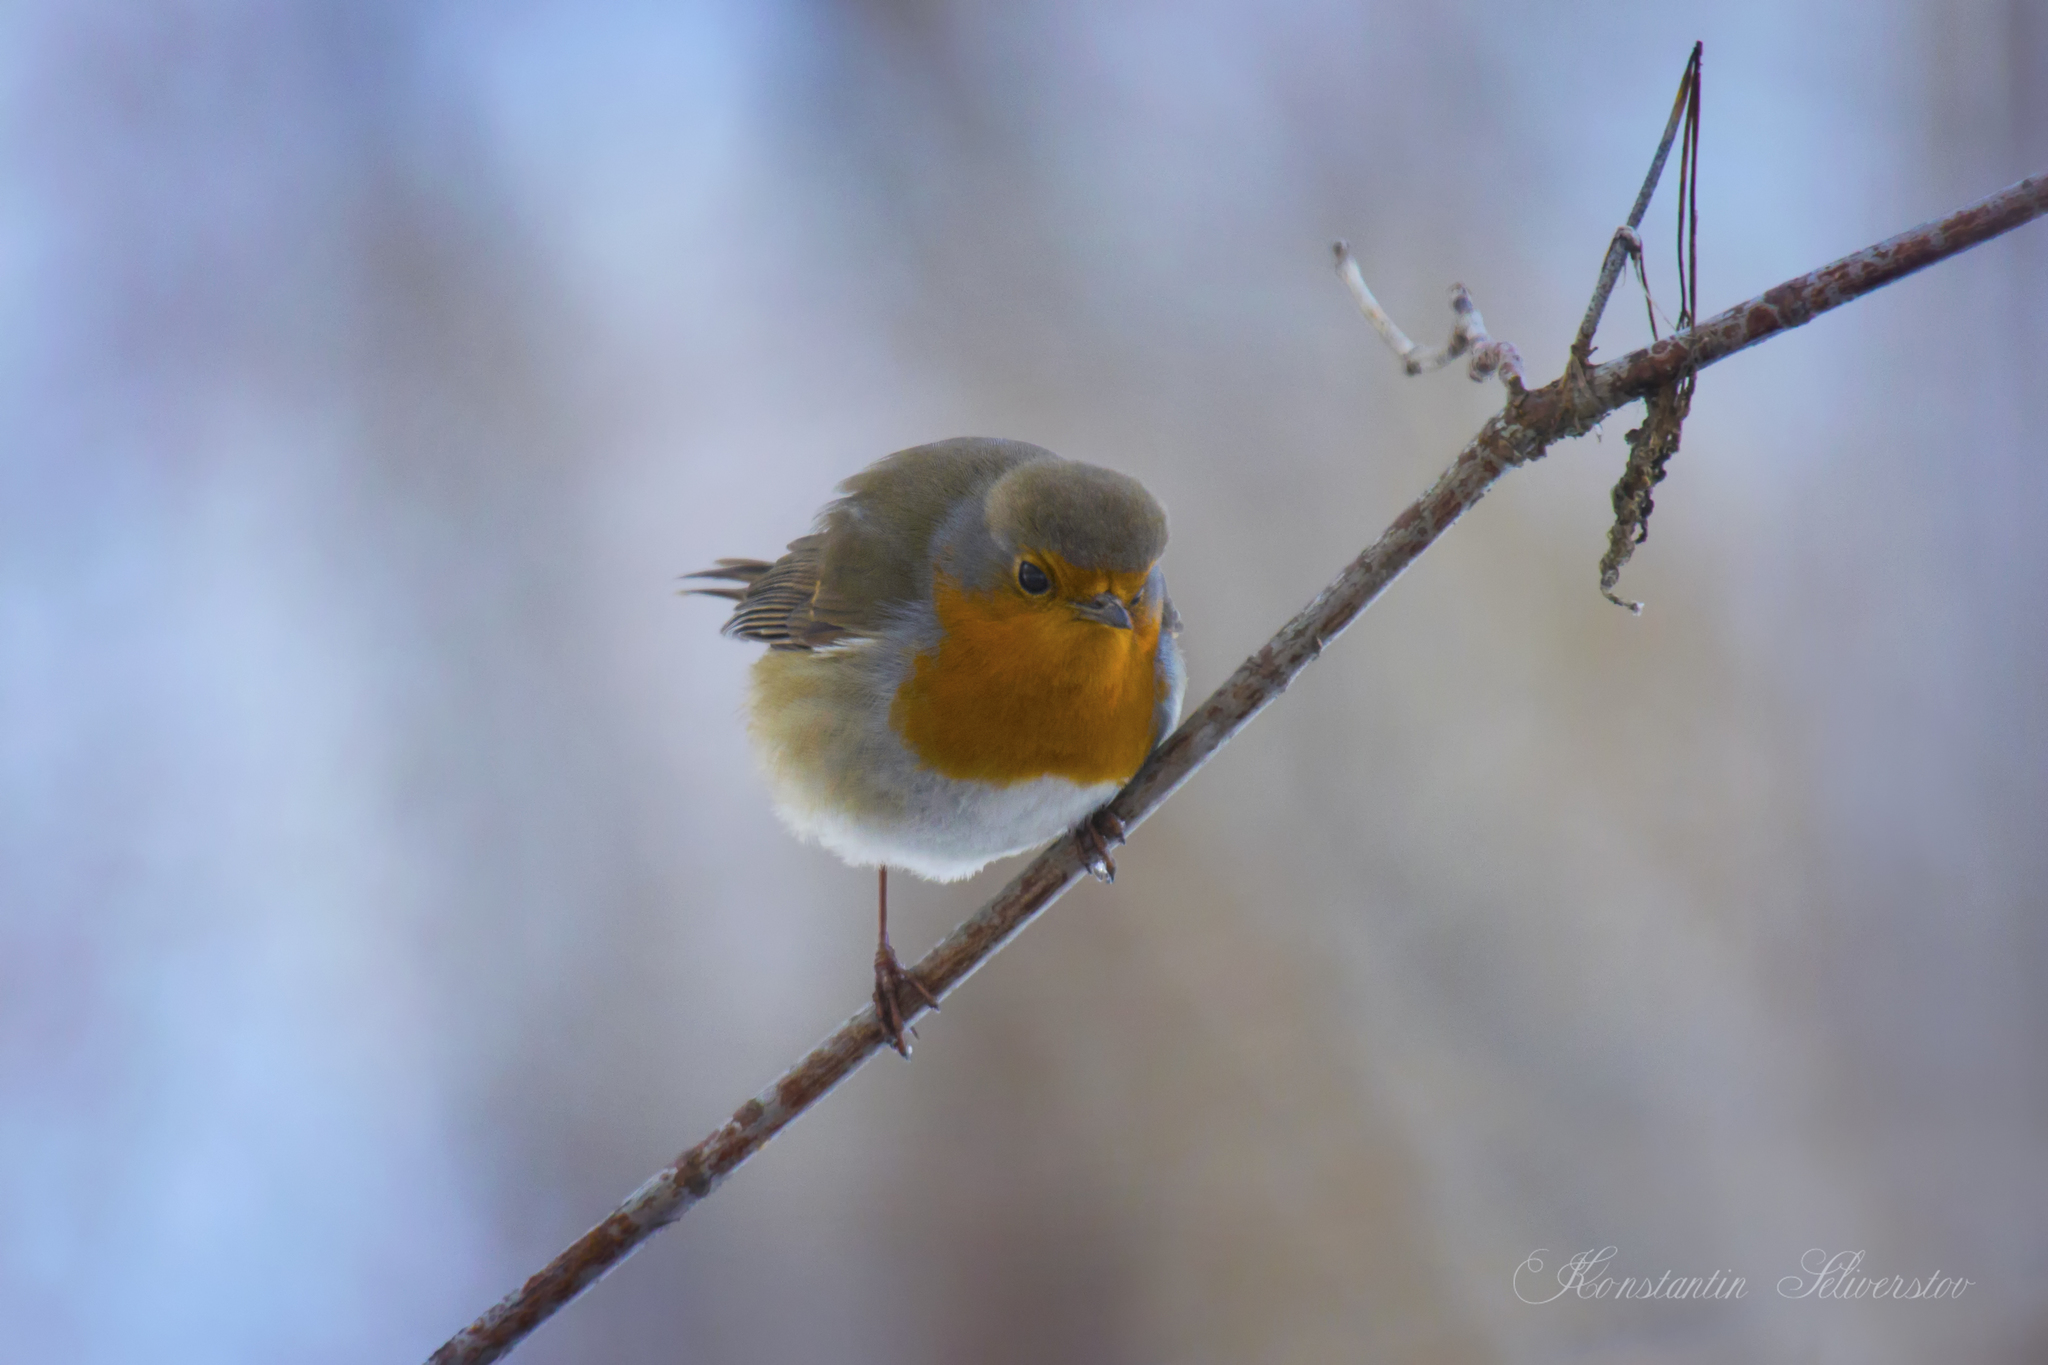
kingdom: Animalia
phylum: Chordata
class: Aves
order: Passeriformes
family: Muscicapidae
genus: Erithacus
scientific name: Erithacus rubecula
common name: European robin
